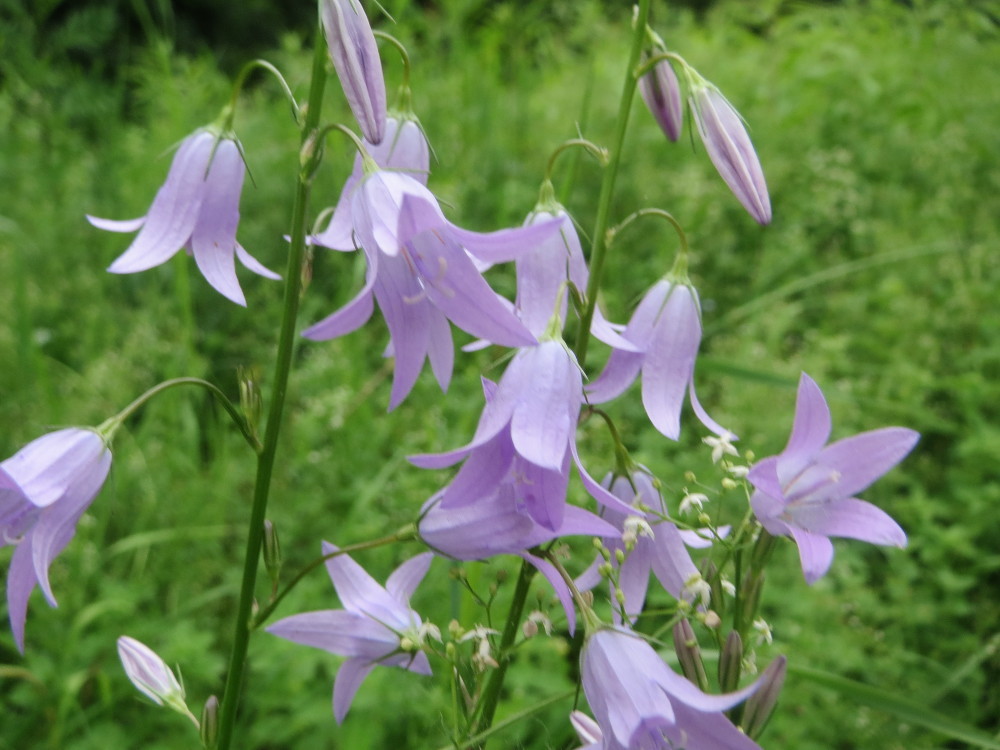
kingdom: Plantae
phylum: Tracheophyta
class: Magnoliopsida
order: Asterales
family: Campanulaceae
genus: Campanula
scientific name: Campanula rapunculus
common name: Rampion bellflower
